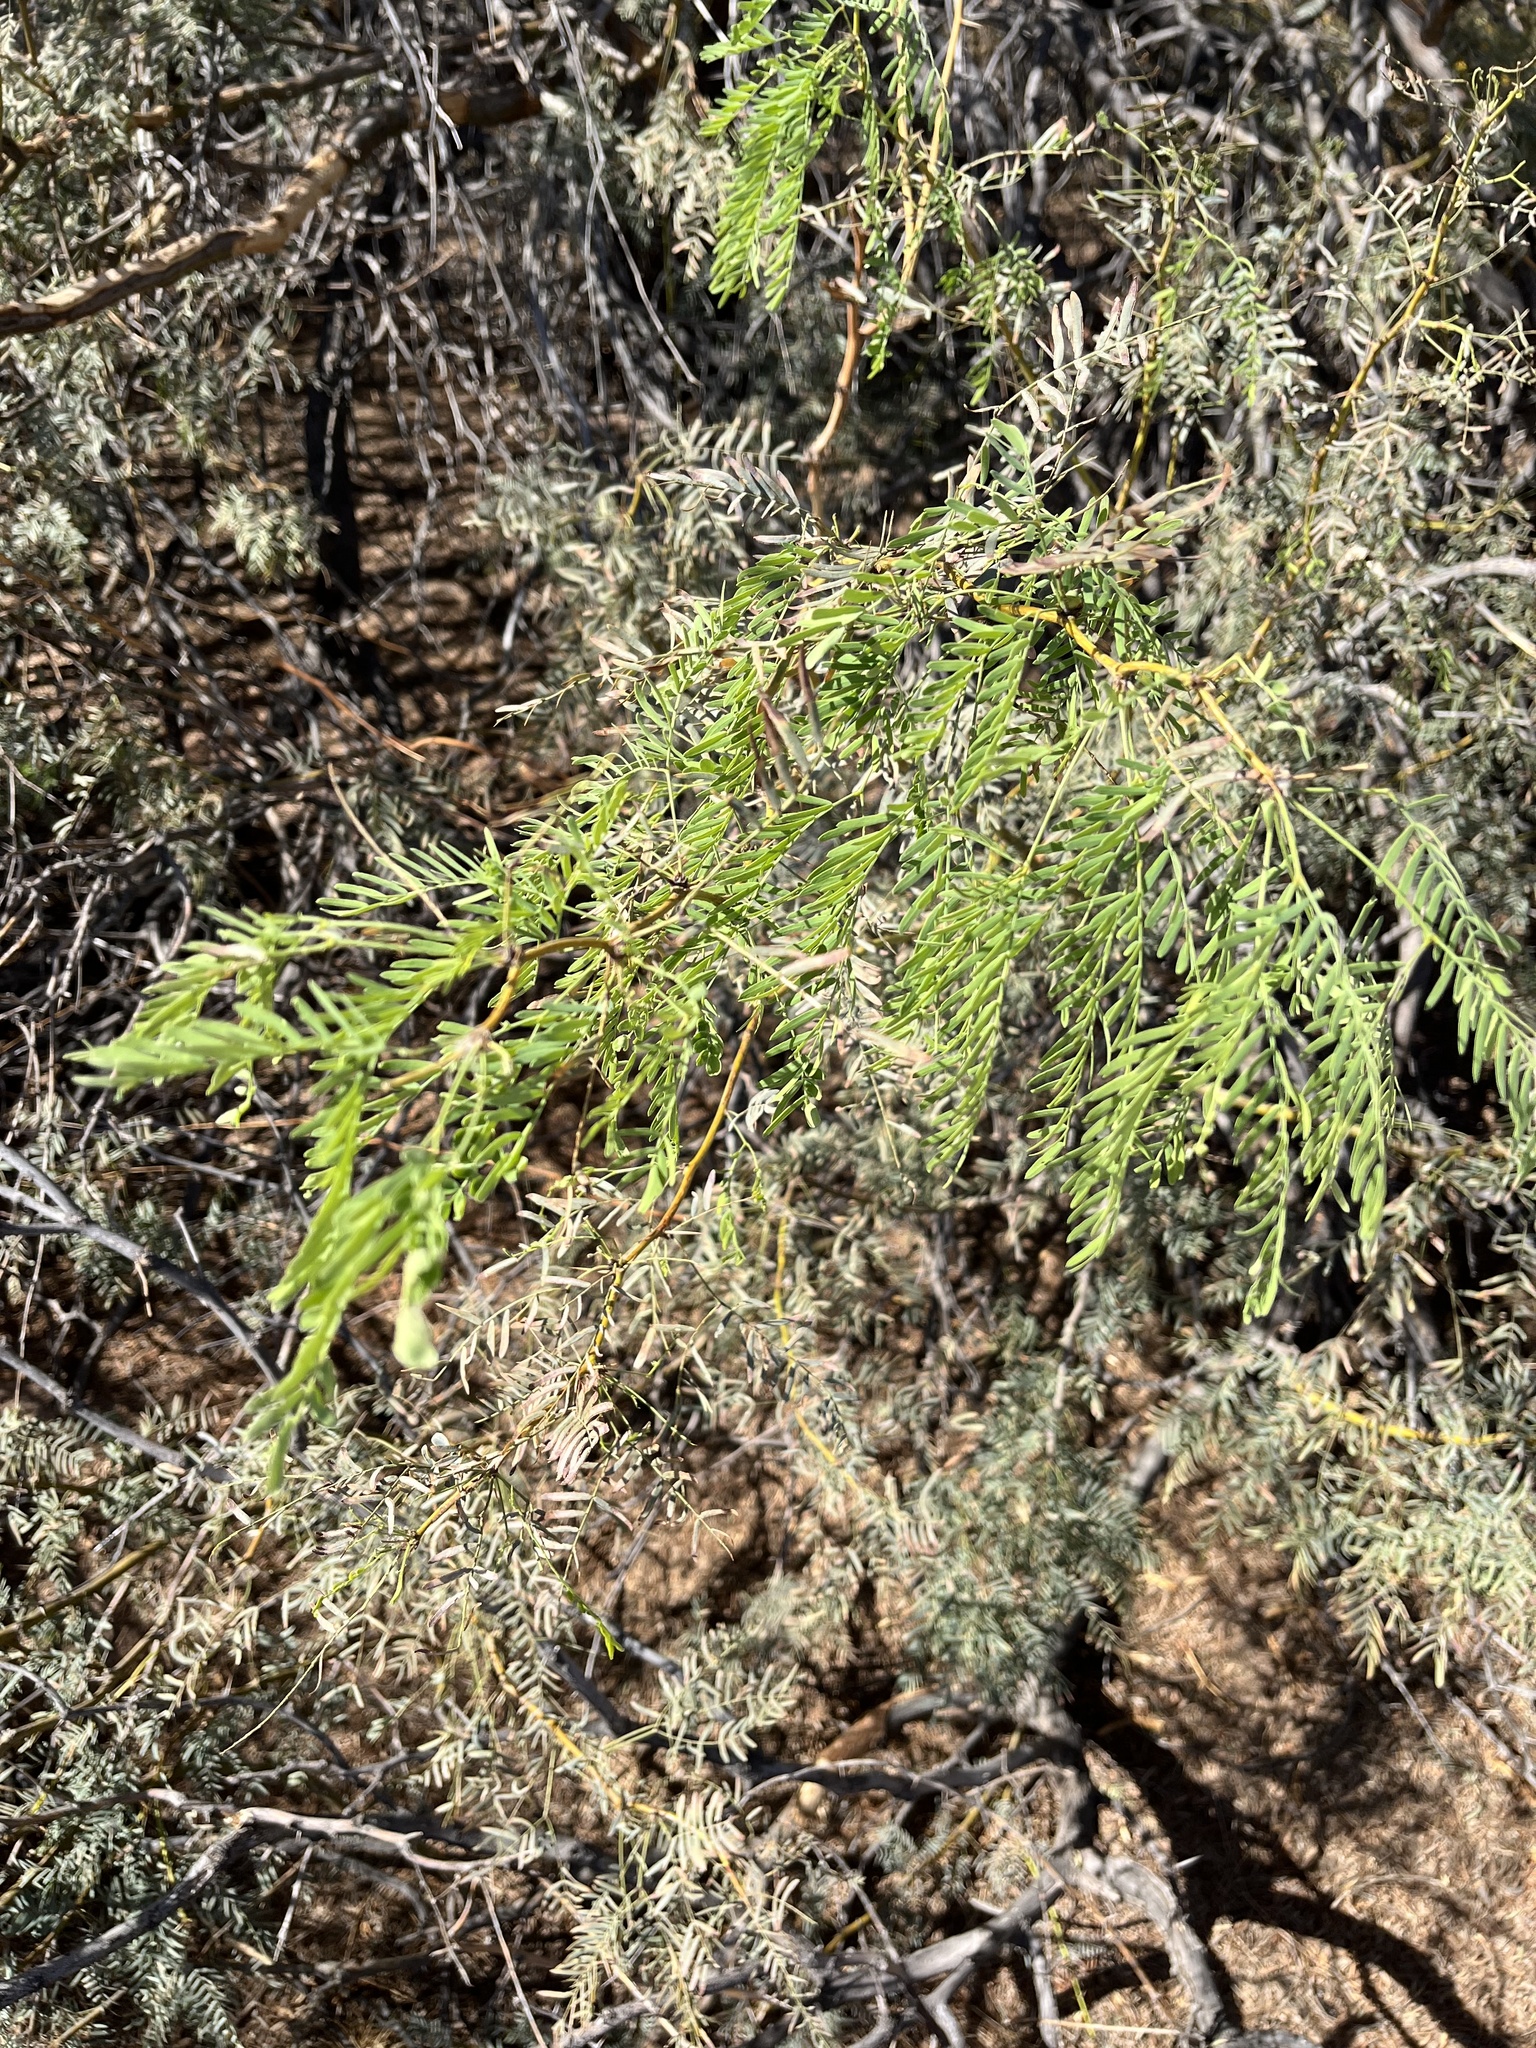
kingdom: Plantae
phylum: Tracheophyta
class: Magnoliopsida
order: Fabales
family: Fabaceae
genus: Prosopis
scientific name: Prosopis pubescens
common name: Screw-bean
